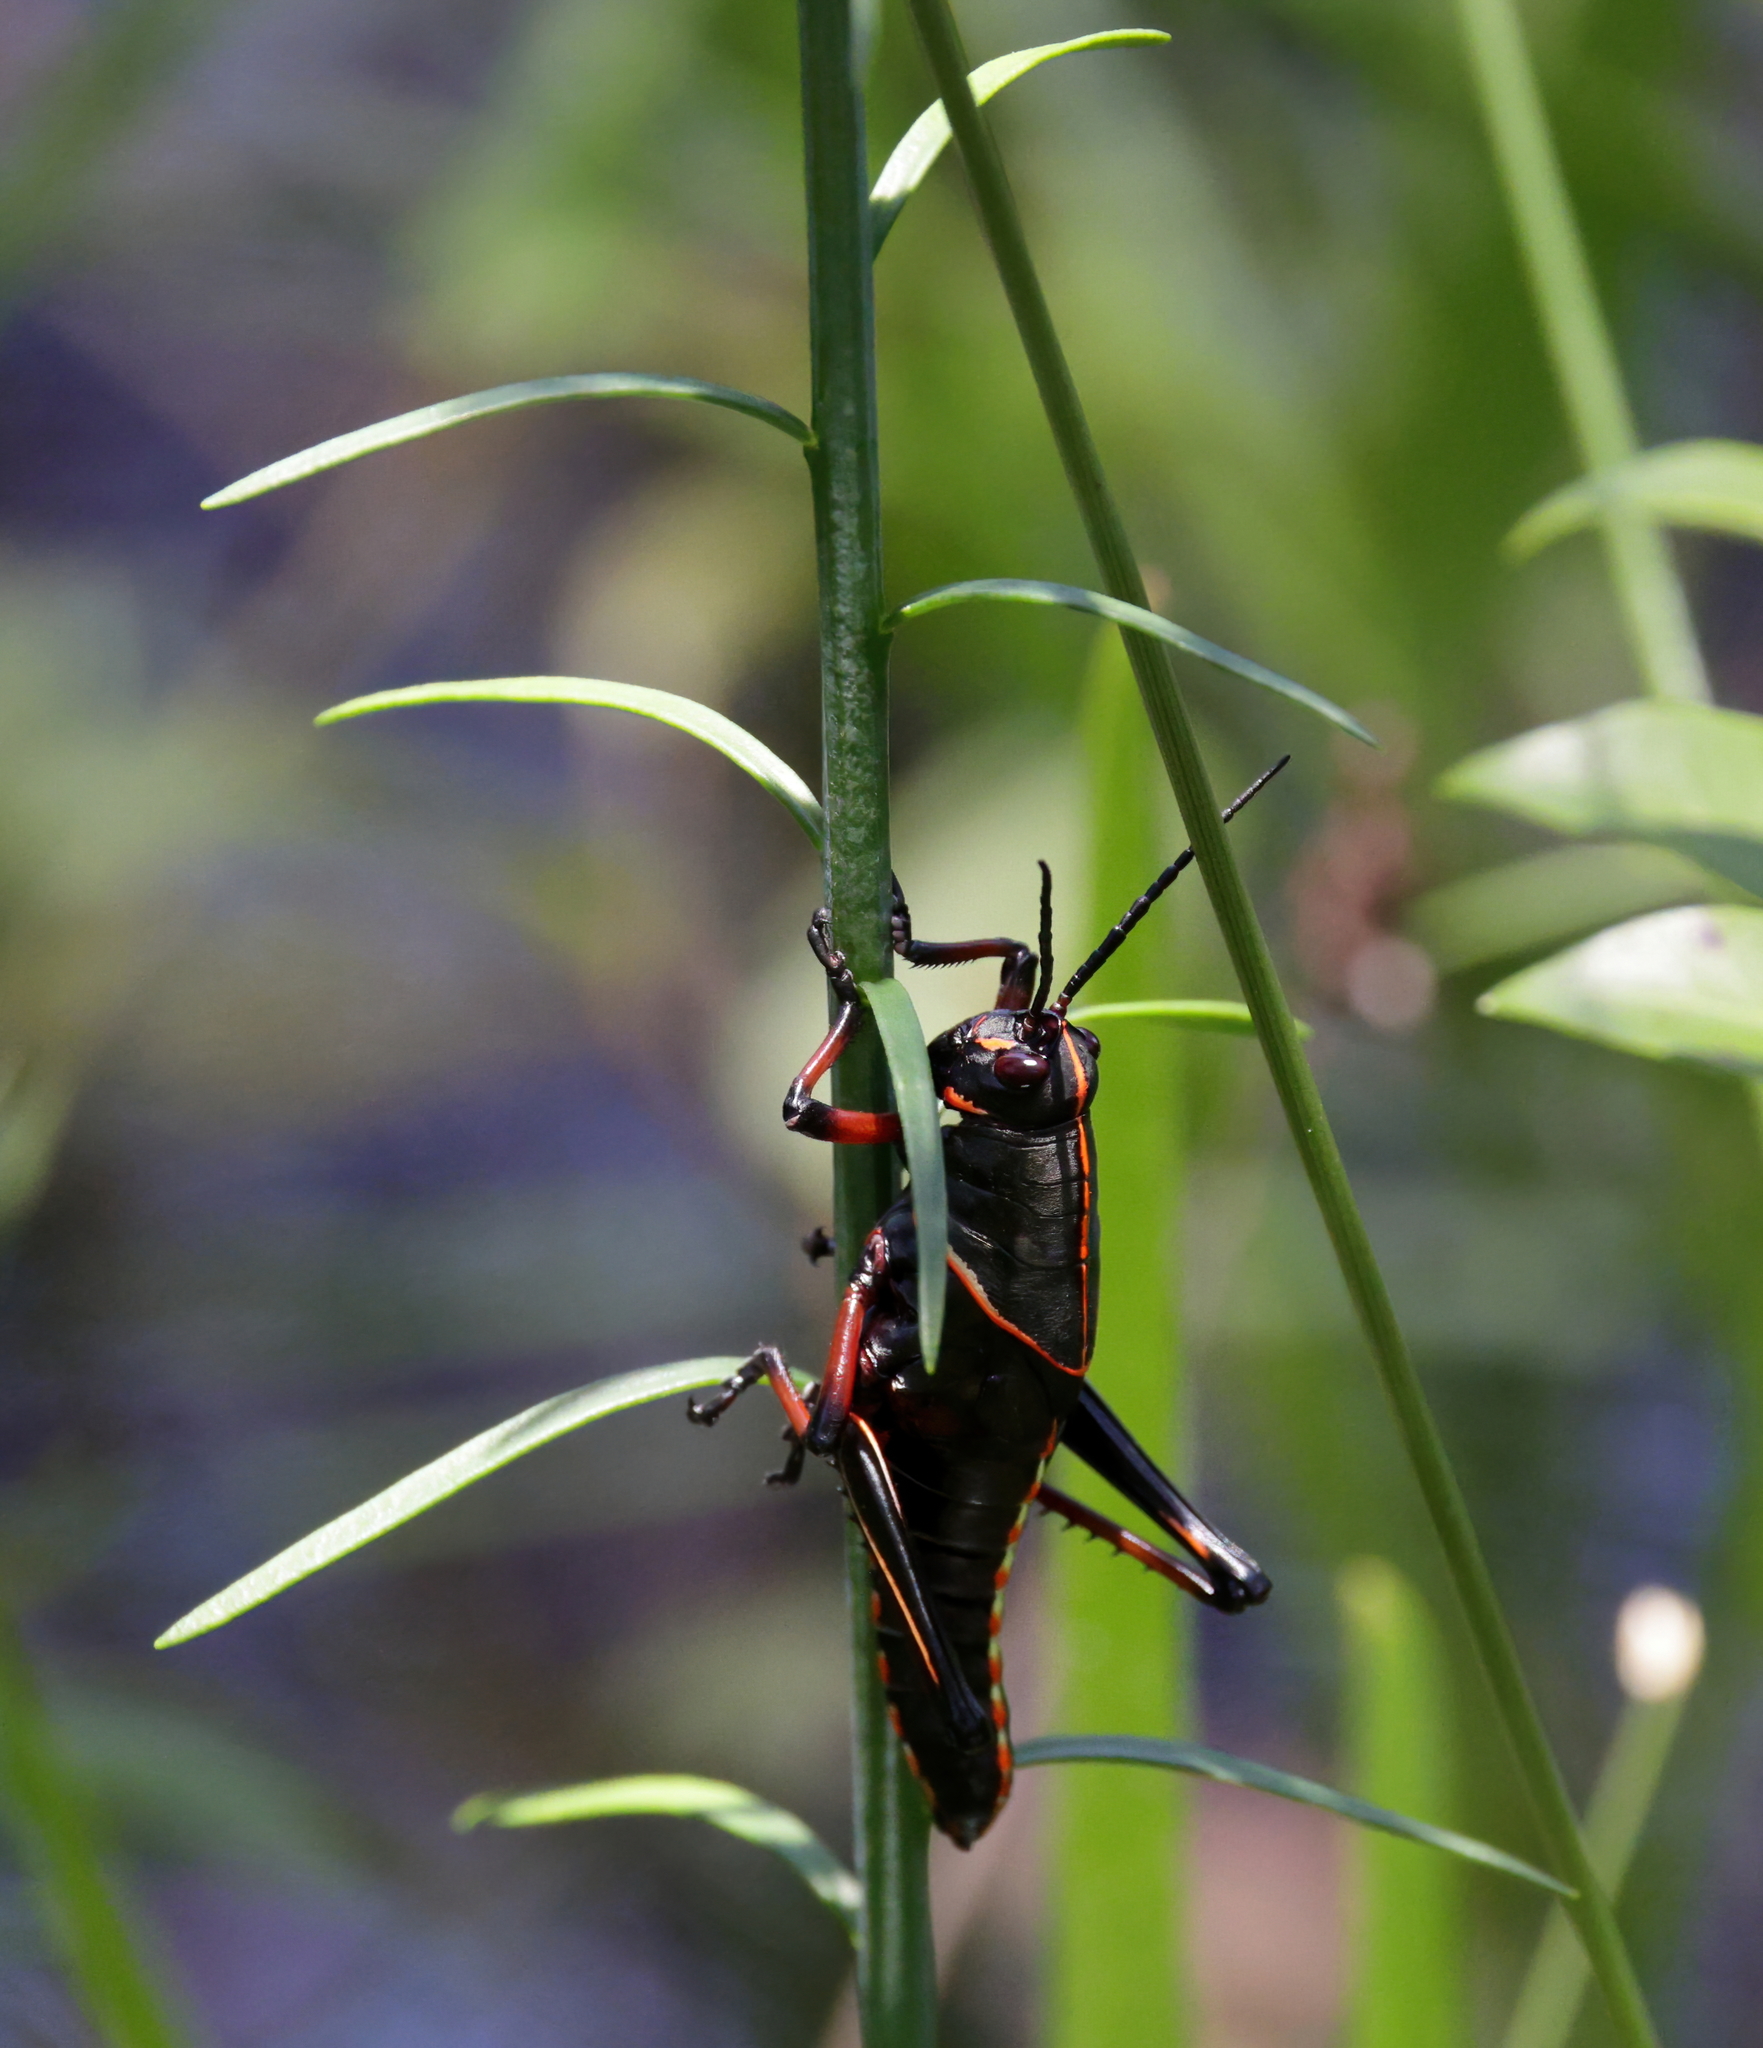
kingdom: Animalia
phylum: Arthropoda
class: Insecta
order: Orthoptera
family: Romaleidae
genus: Romalea
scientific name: Romalea microptera
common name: Eastern lubber grasshopper
